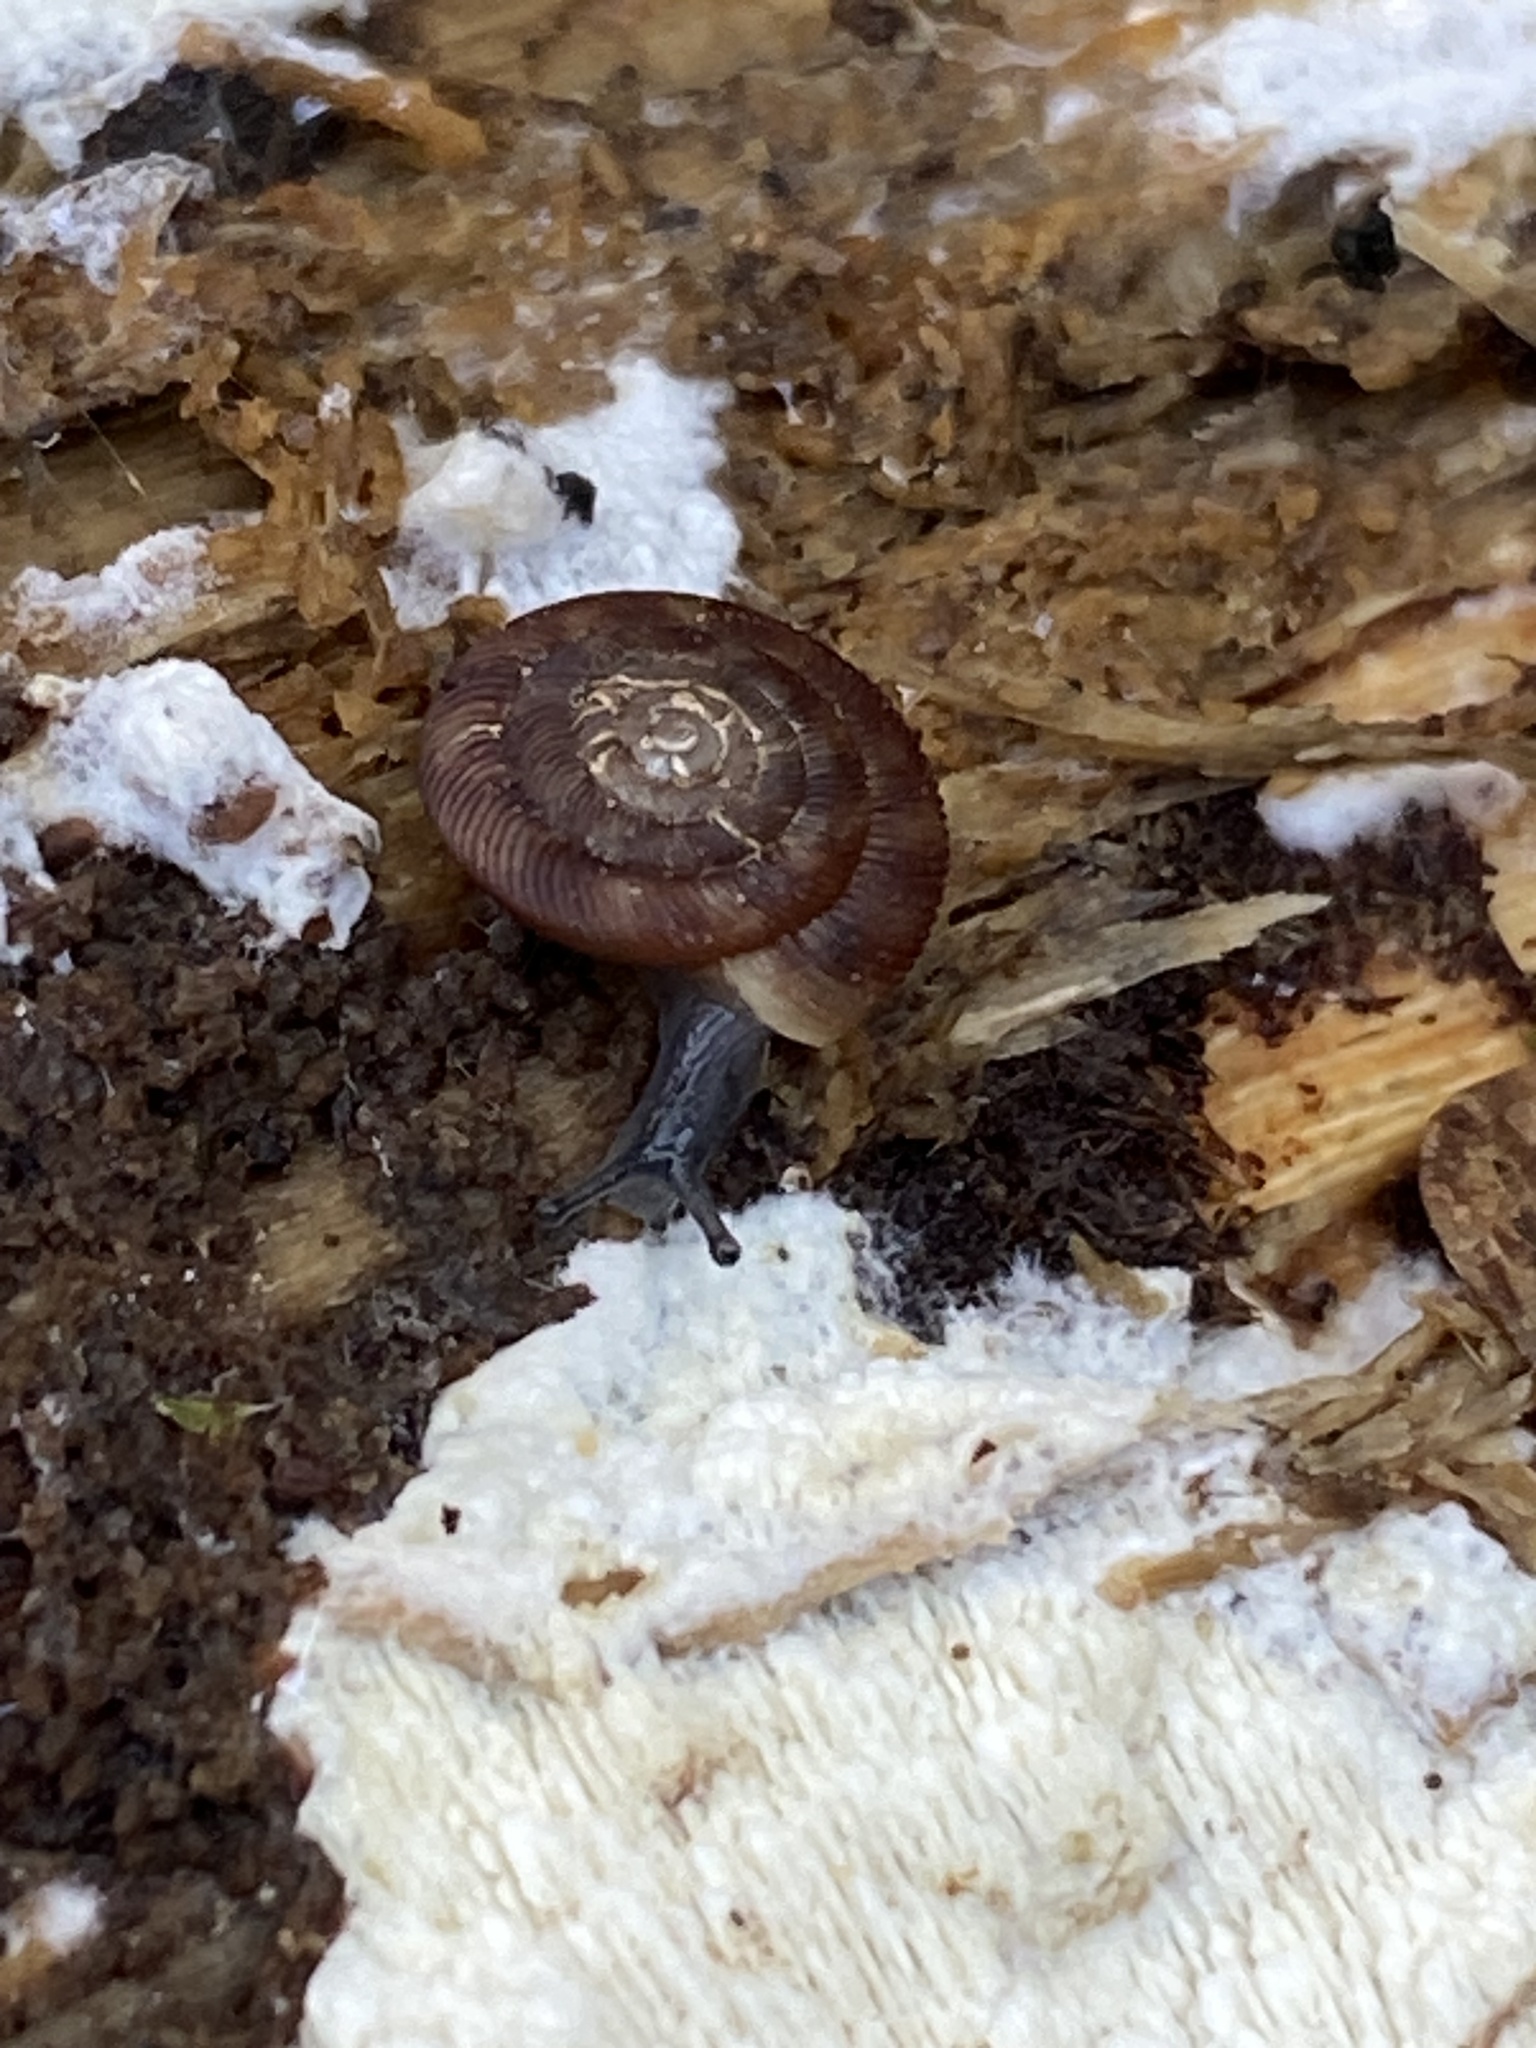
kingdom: Animalia
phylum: Mollusca
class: Gastropoda
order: Stylommatophora
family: Discidae
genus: Discus
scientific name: Discus rotundatus
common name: Rounded snail
